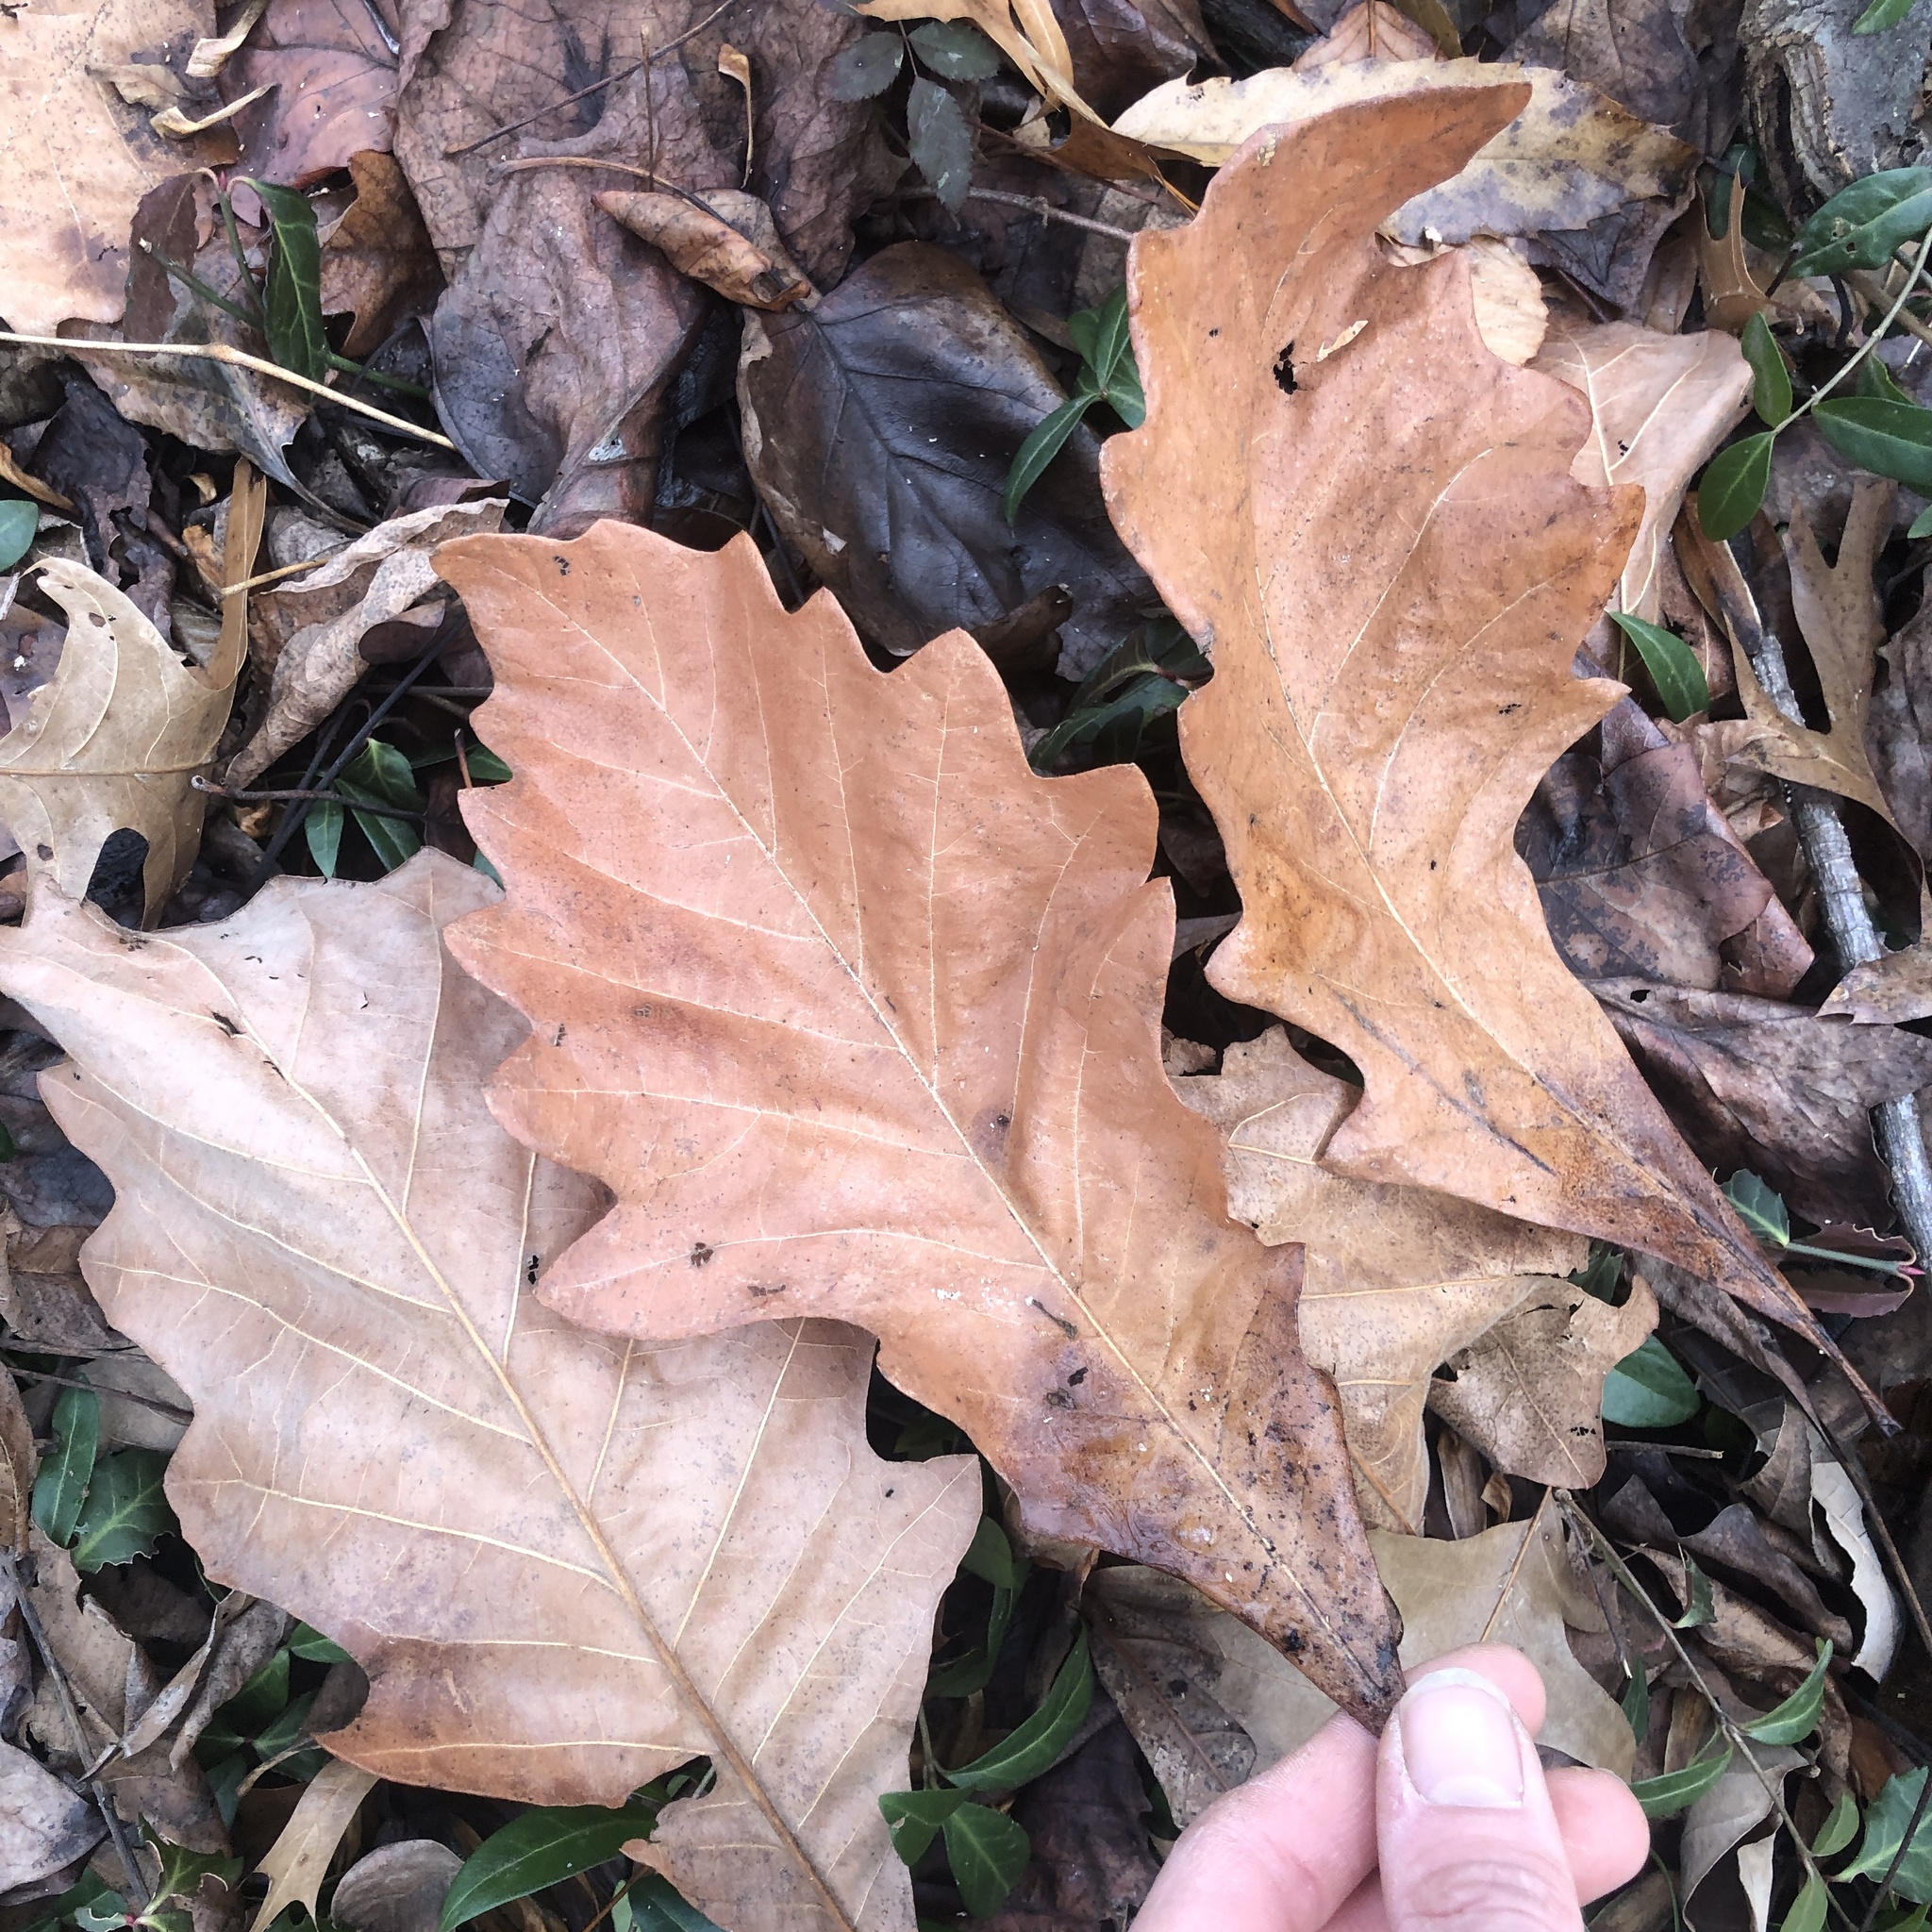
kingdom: Plantae
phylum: Tracheophyta
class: Magnoliopsida
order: Fagales
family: Fagaceae
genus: Quercus
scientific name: Quercus bicolor
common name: Swamp white oak
